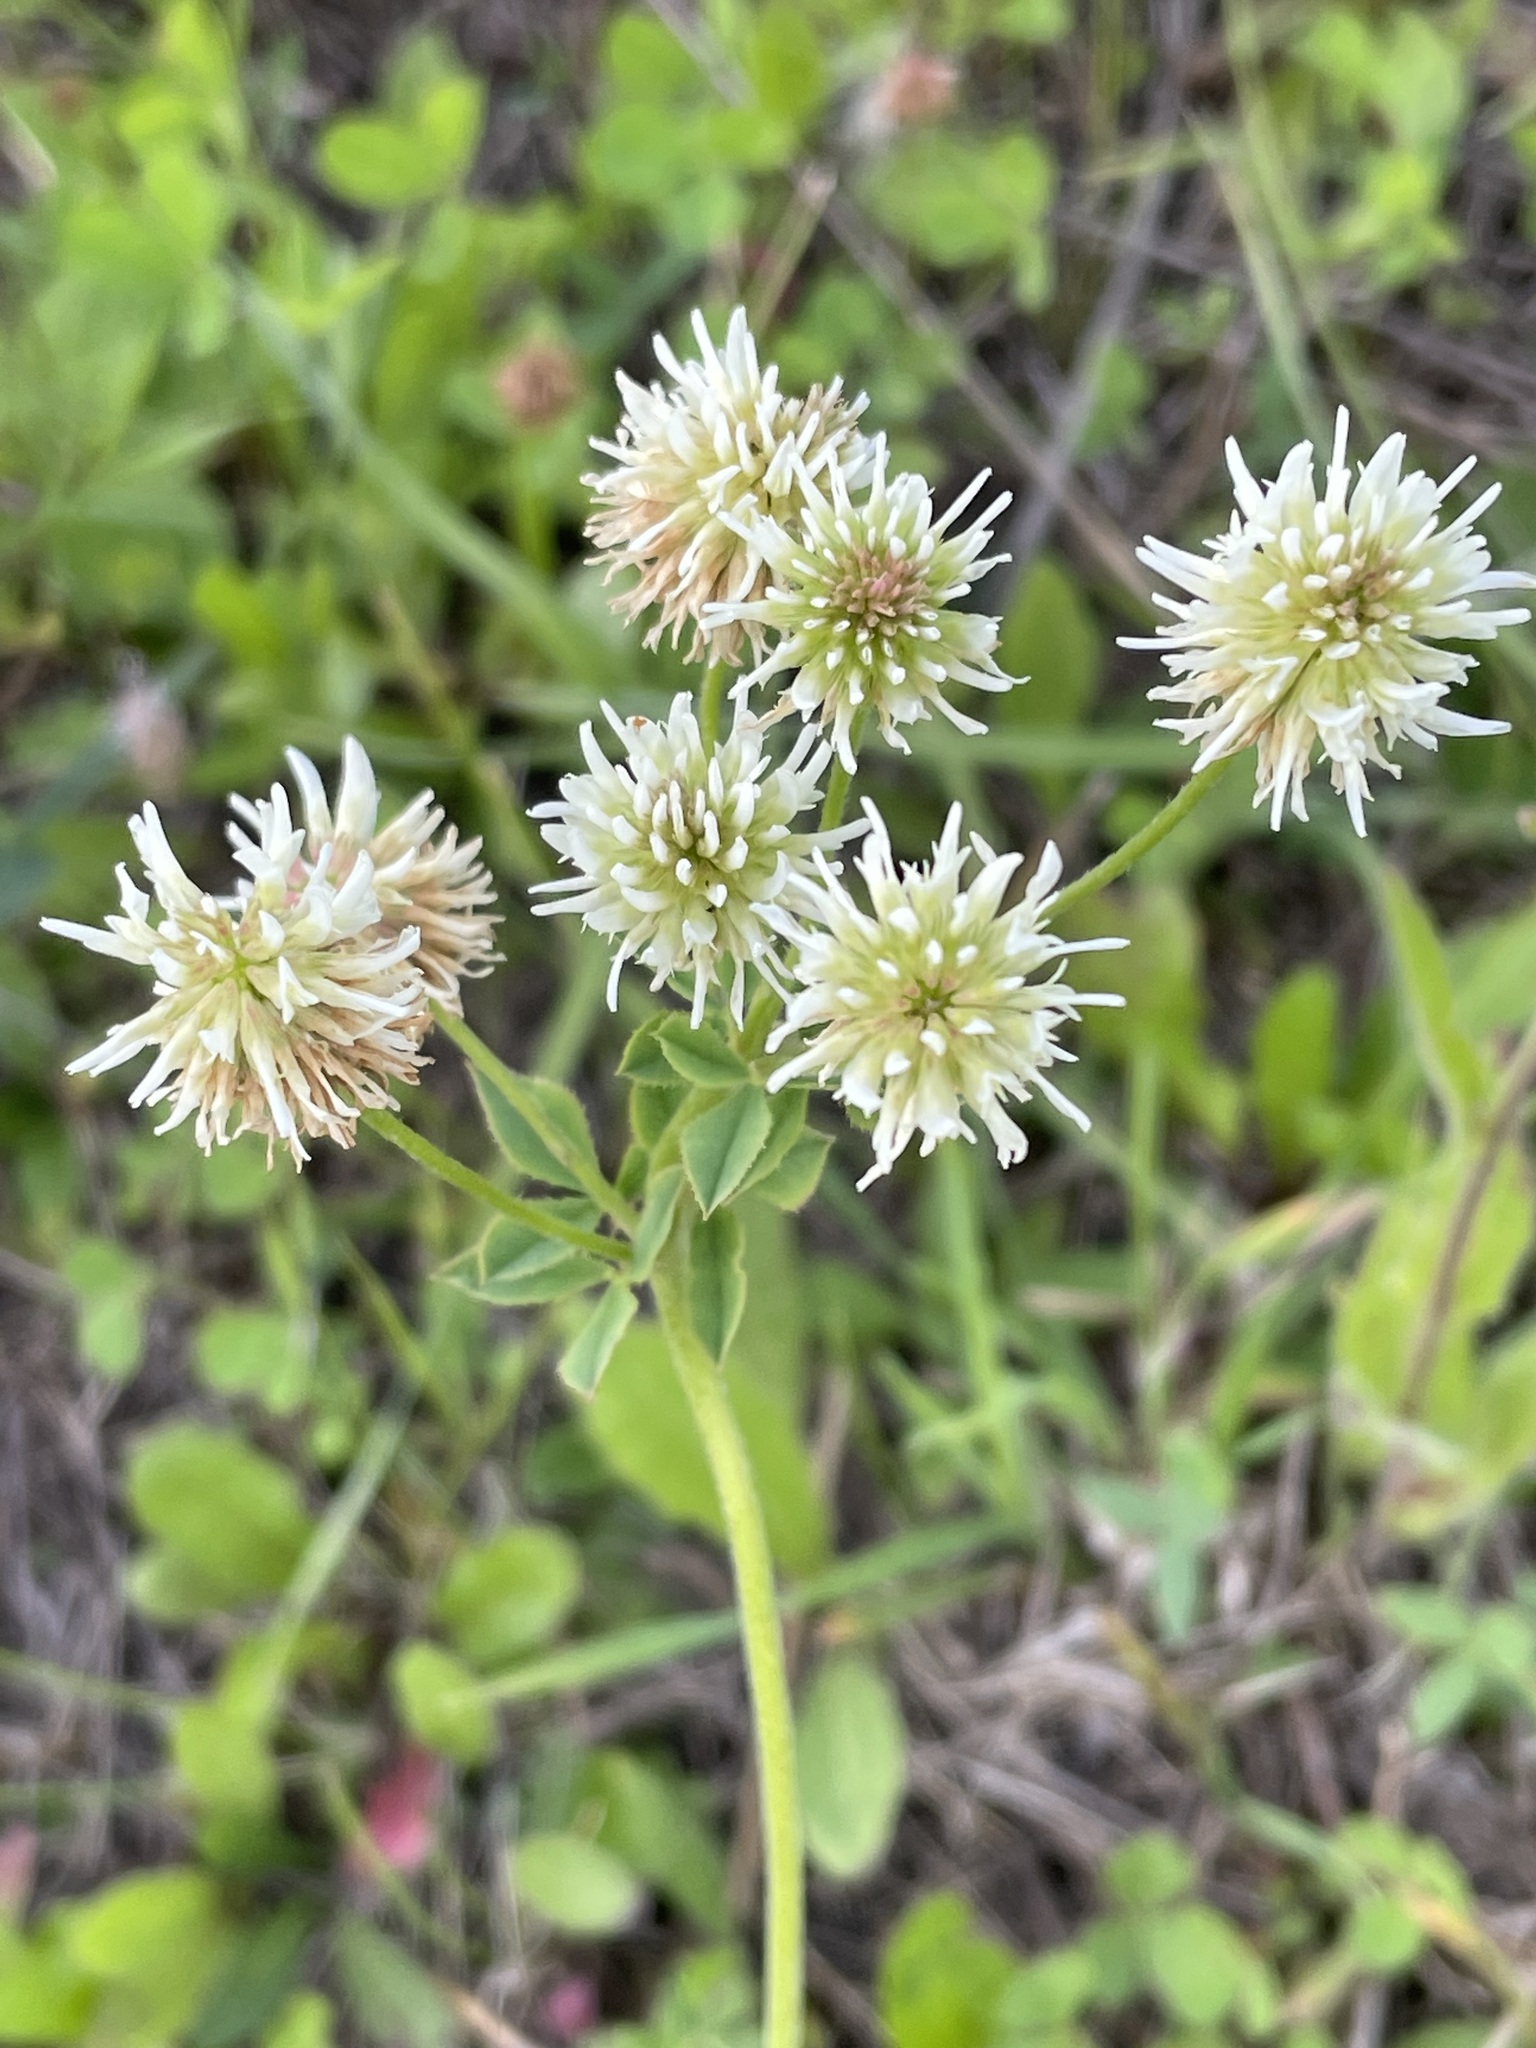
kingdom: Plantae
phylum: Tracheophyta
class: Magnoliopsida
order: Fabales
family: Fabaceae
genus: Trifolium
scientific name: Trifolium montanum
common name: Mountain clover
